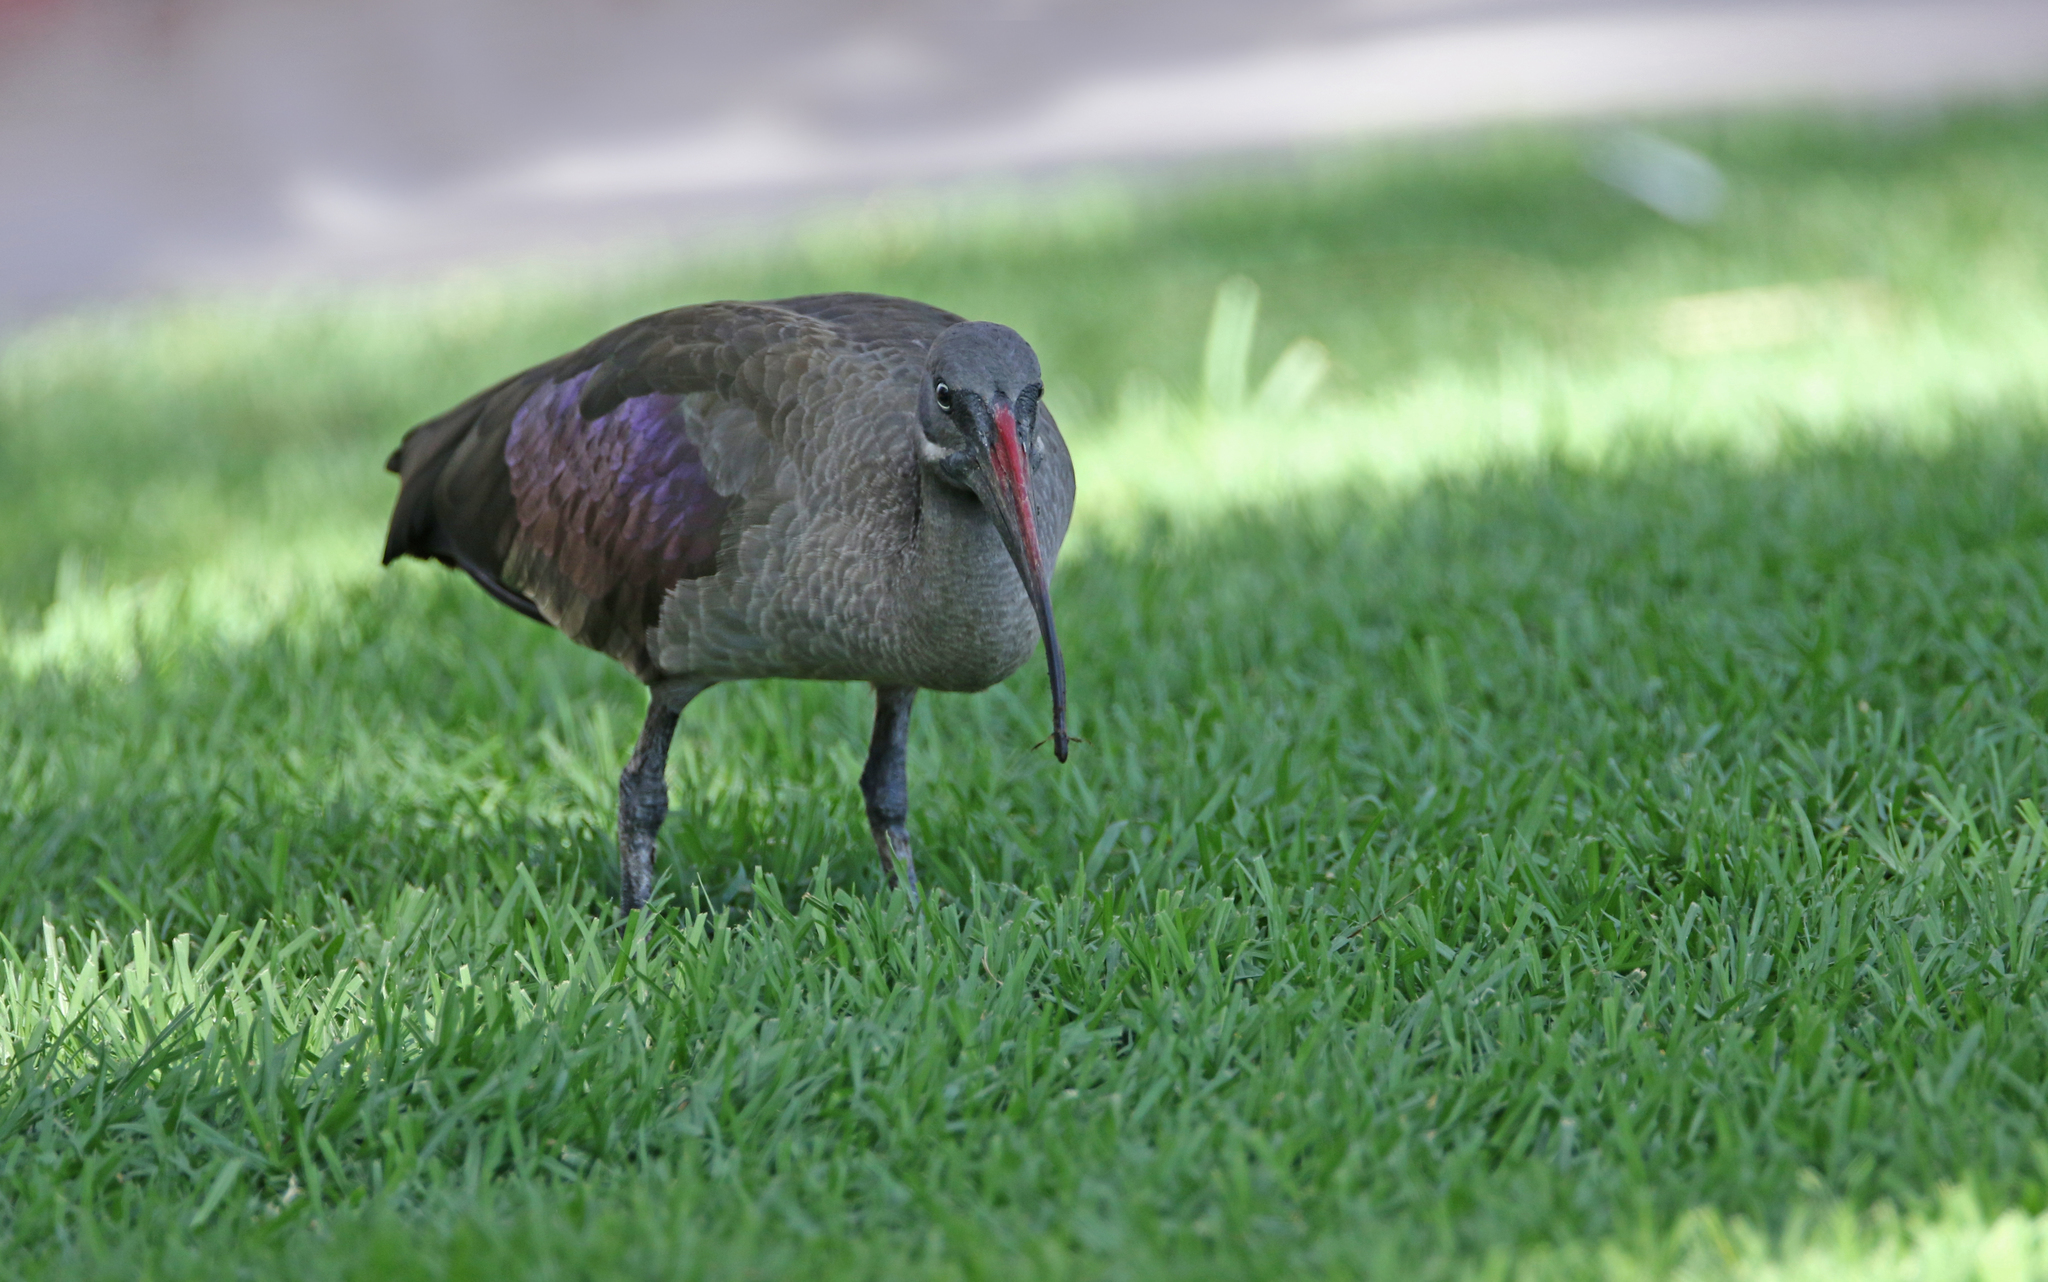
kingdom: Animalia
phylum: Chordata
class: Aves
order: Pelecaniformes
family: Threskiornithidae
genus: Bostrychia
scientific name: Bostrychia hagedash
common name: Hadada ibis
